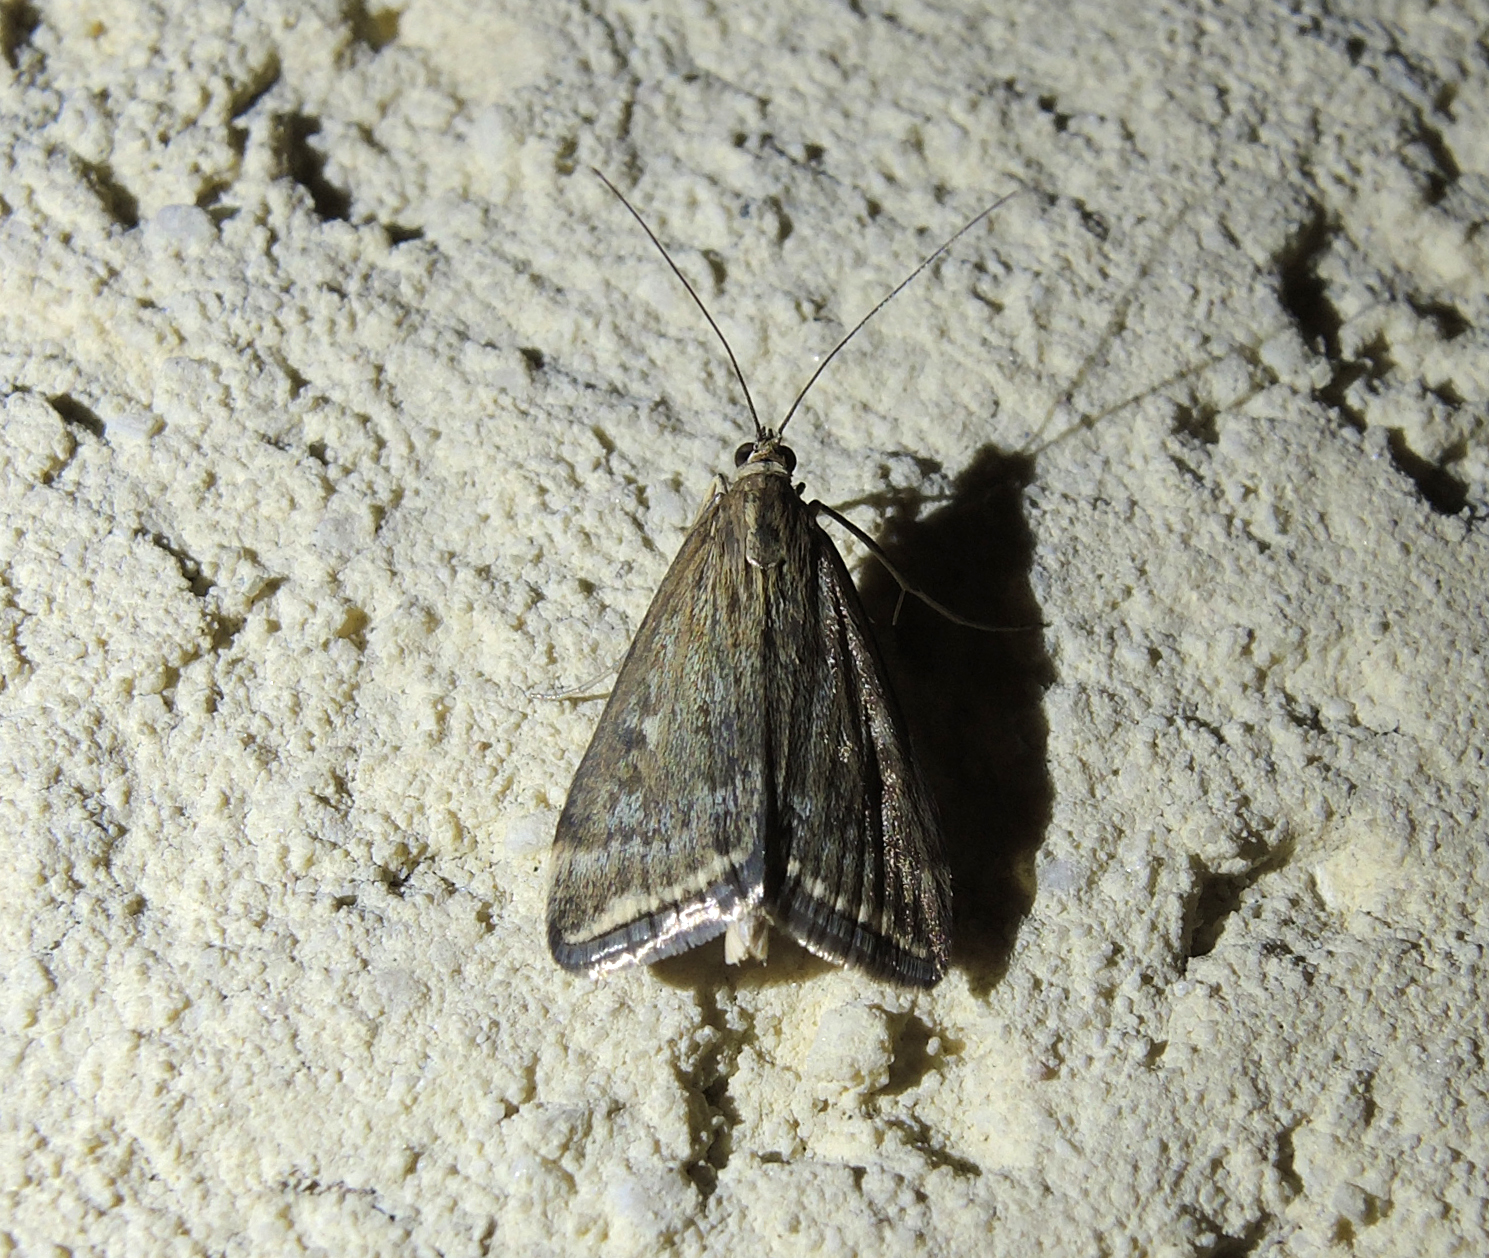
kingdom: Animalia
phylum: Arthropoda
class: Insecta
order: Lepidoptera
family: Crambidae
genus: Loxostege
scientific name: Loxostege sticticalis
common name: Crambid moth
